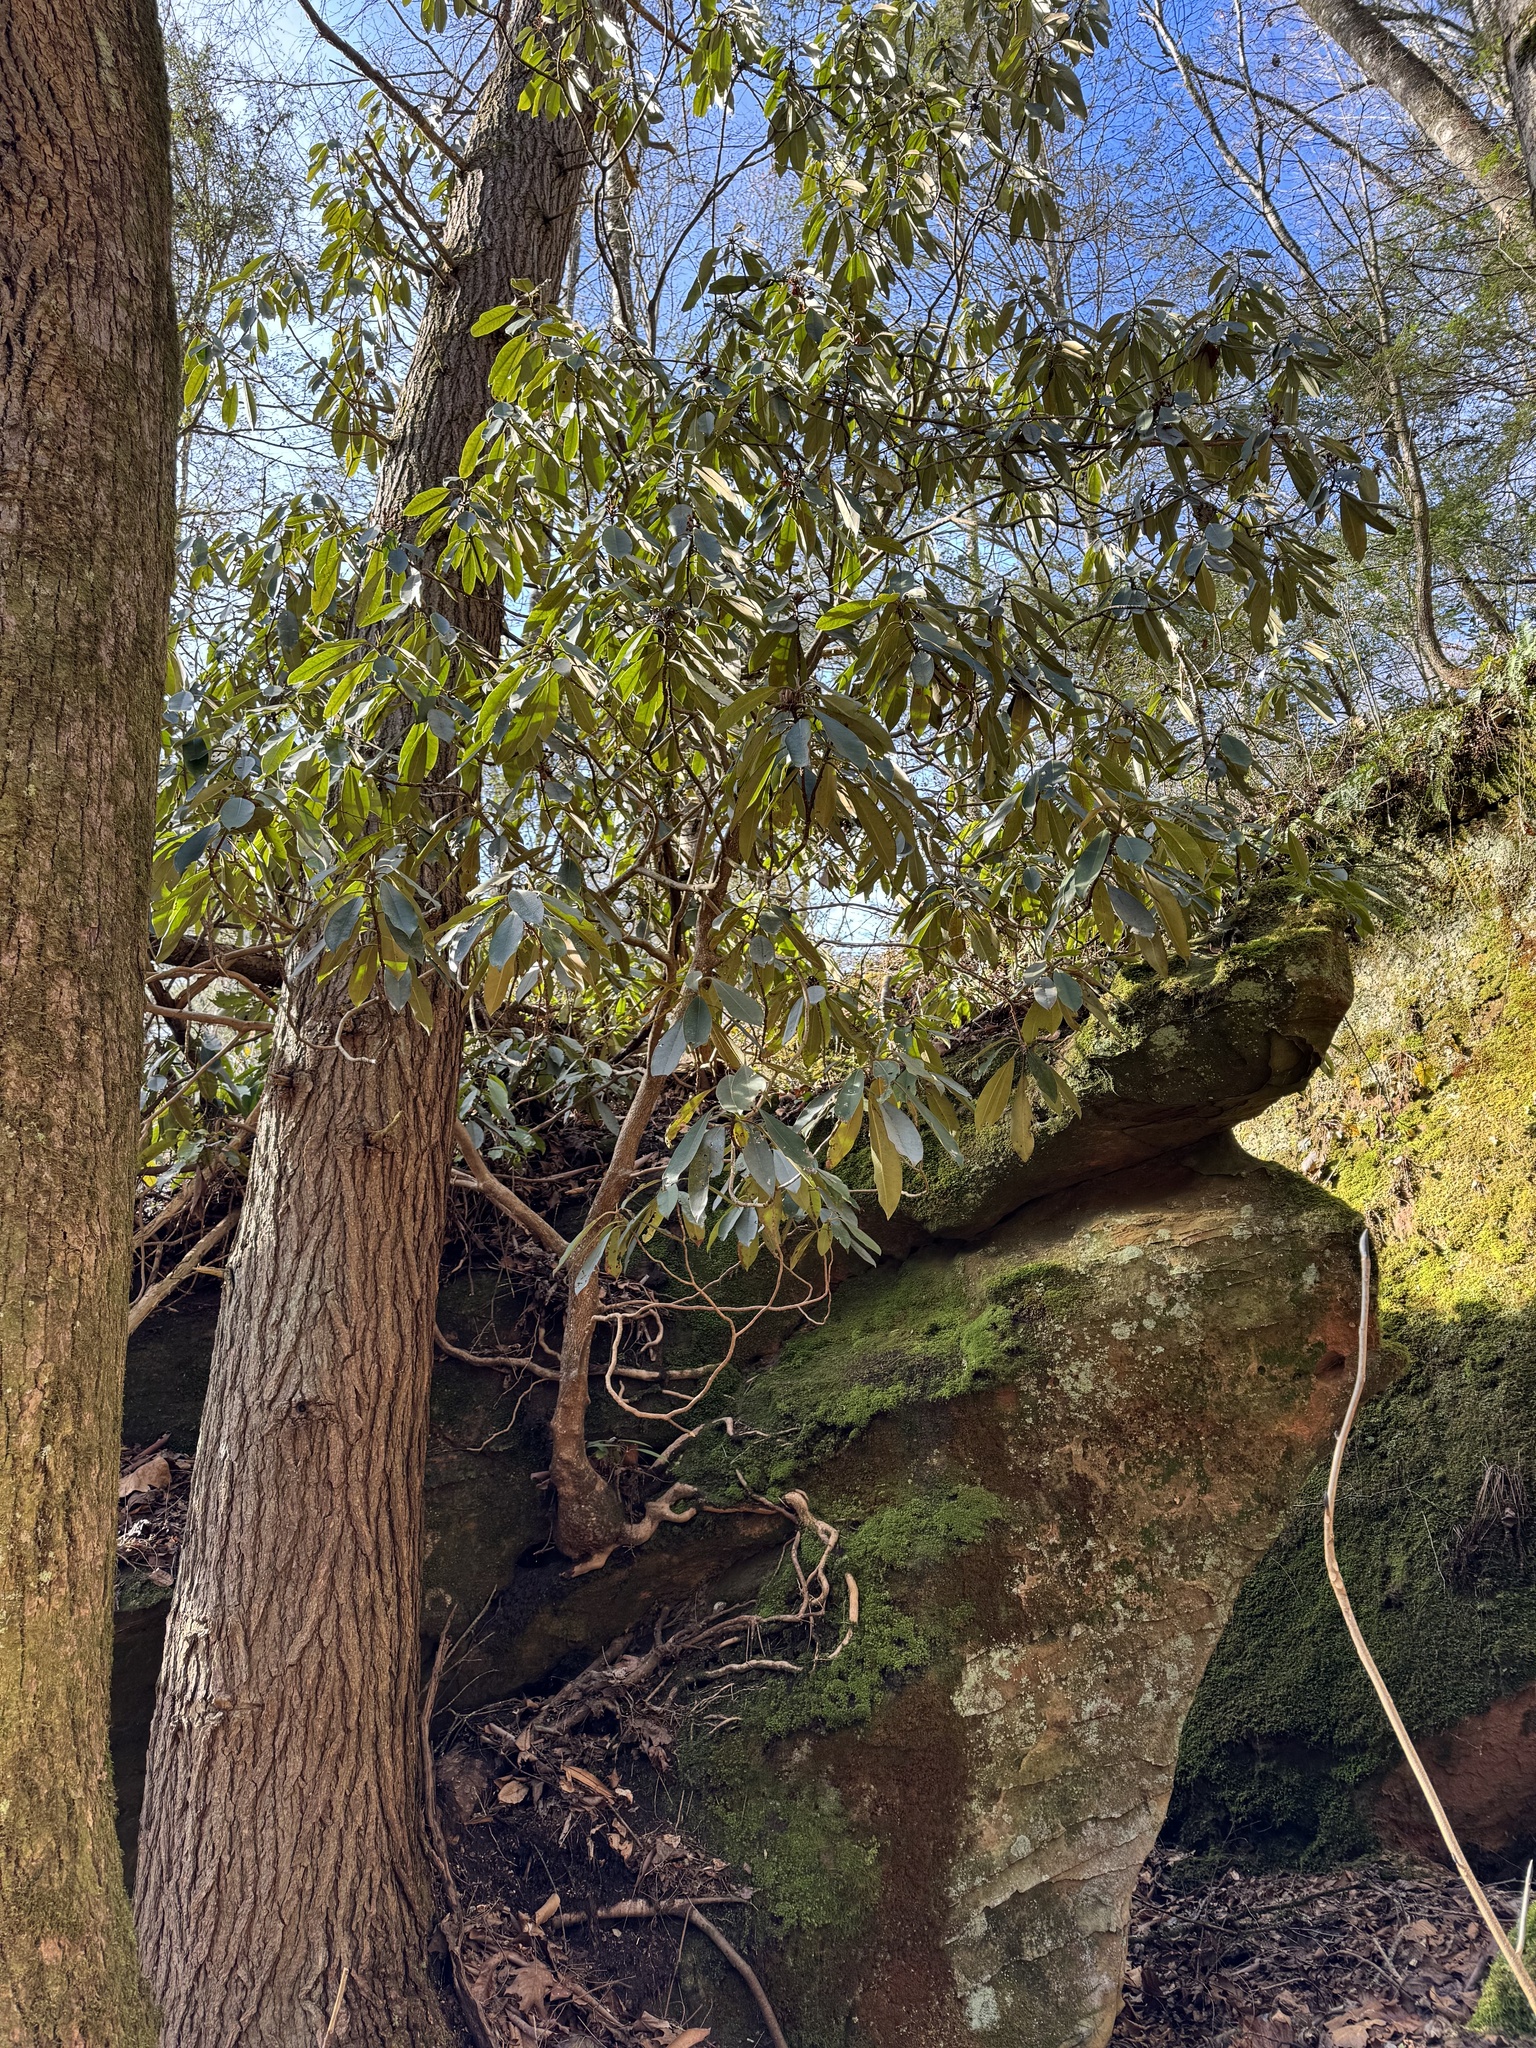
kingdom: Plantae
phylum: Tracheophyta
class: Magnoliopsida
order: Ericales
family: Ericaceae
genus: Rhododendron
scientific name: Rhododendron maximum
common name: Great rhododendron
